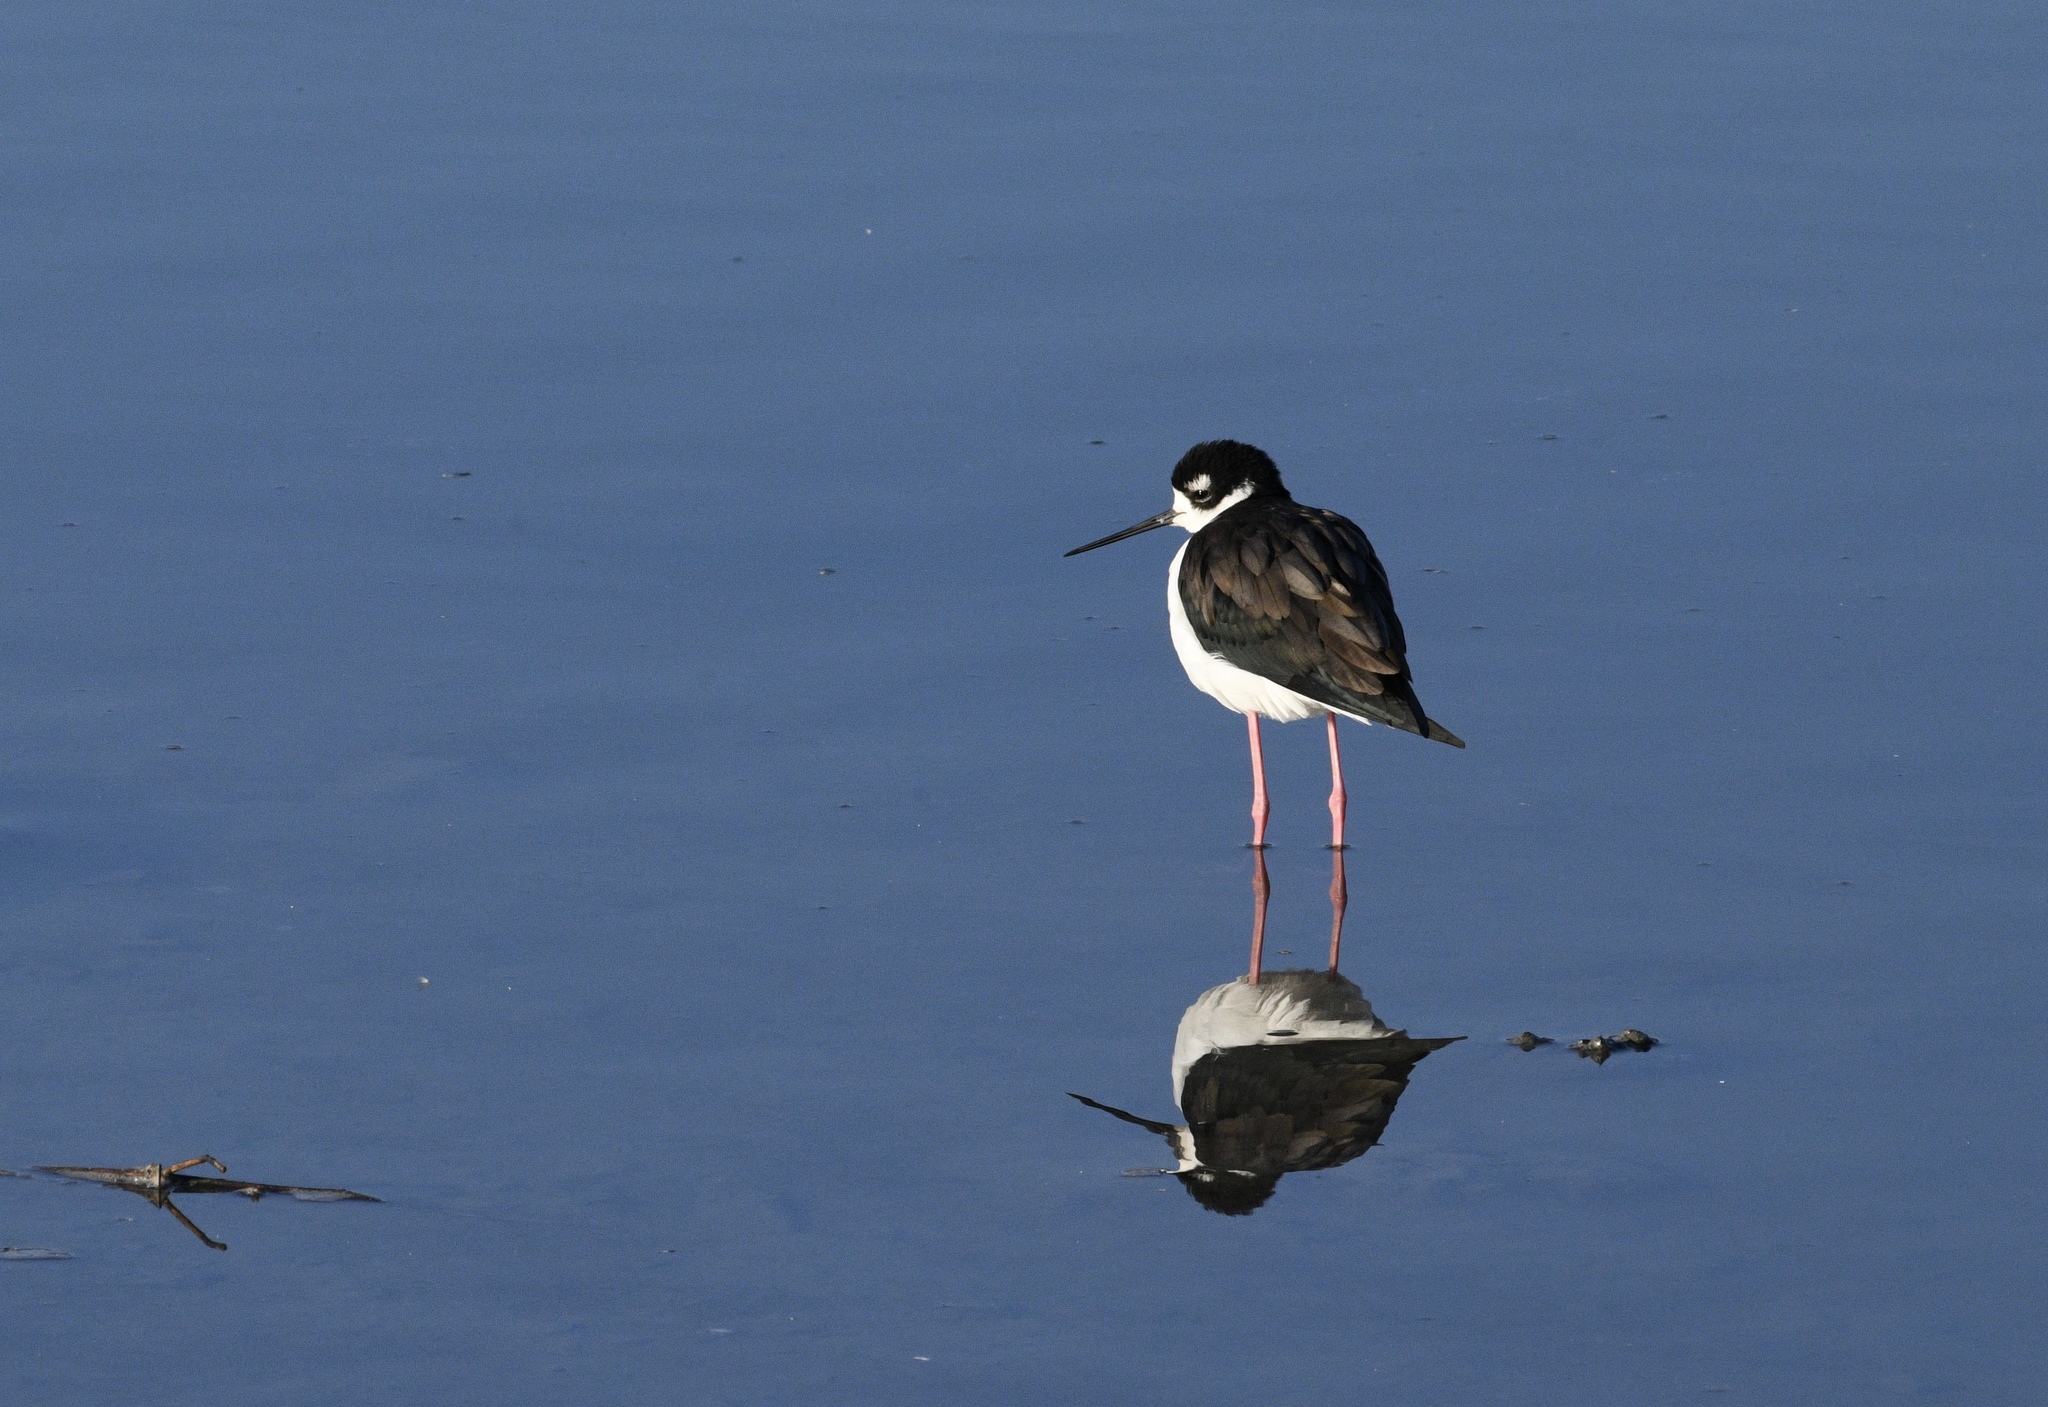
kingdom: Animalia
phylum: Chordata
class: Aves
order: Charadriiformes
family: Recurvirostridae
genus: Himantopus
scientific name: Himantopus mexicanus
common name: Black-necked stilt
